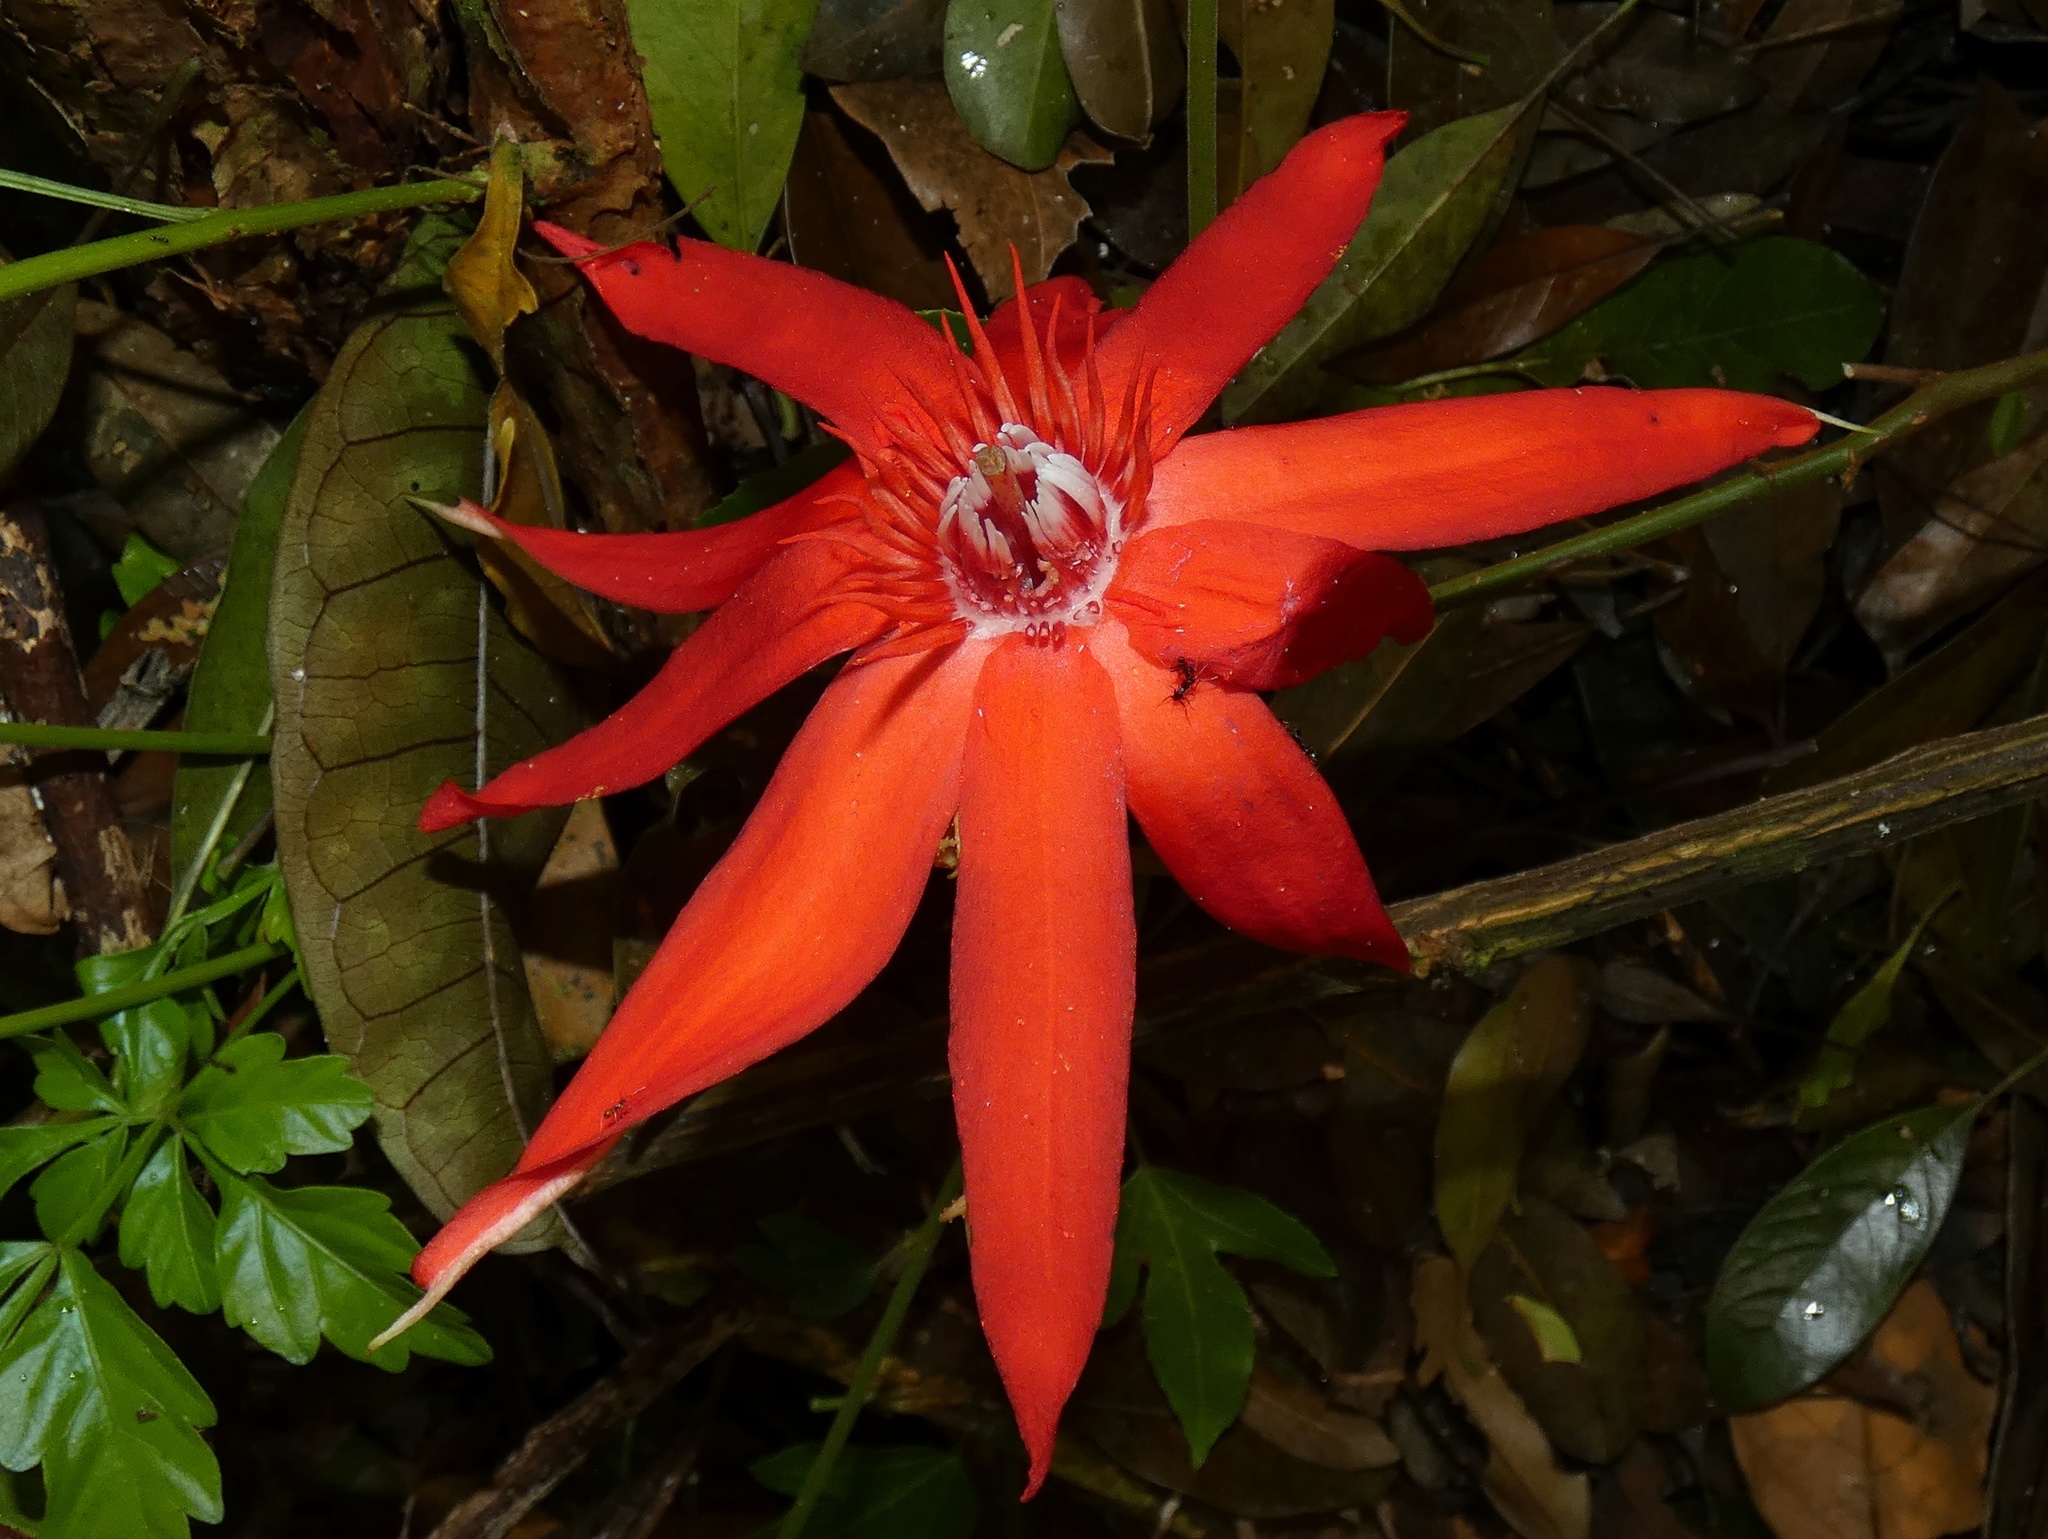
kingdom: Plantae
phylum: Tracheophyta
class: Magnoliopsida
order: Malpighiales
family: Passifloraceae
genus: Passiflora
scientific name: Passiflora vitifolia
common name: Perfumed passionflower
